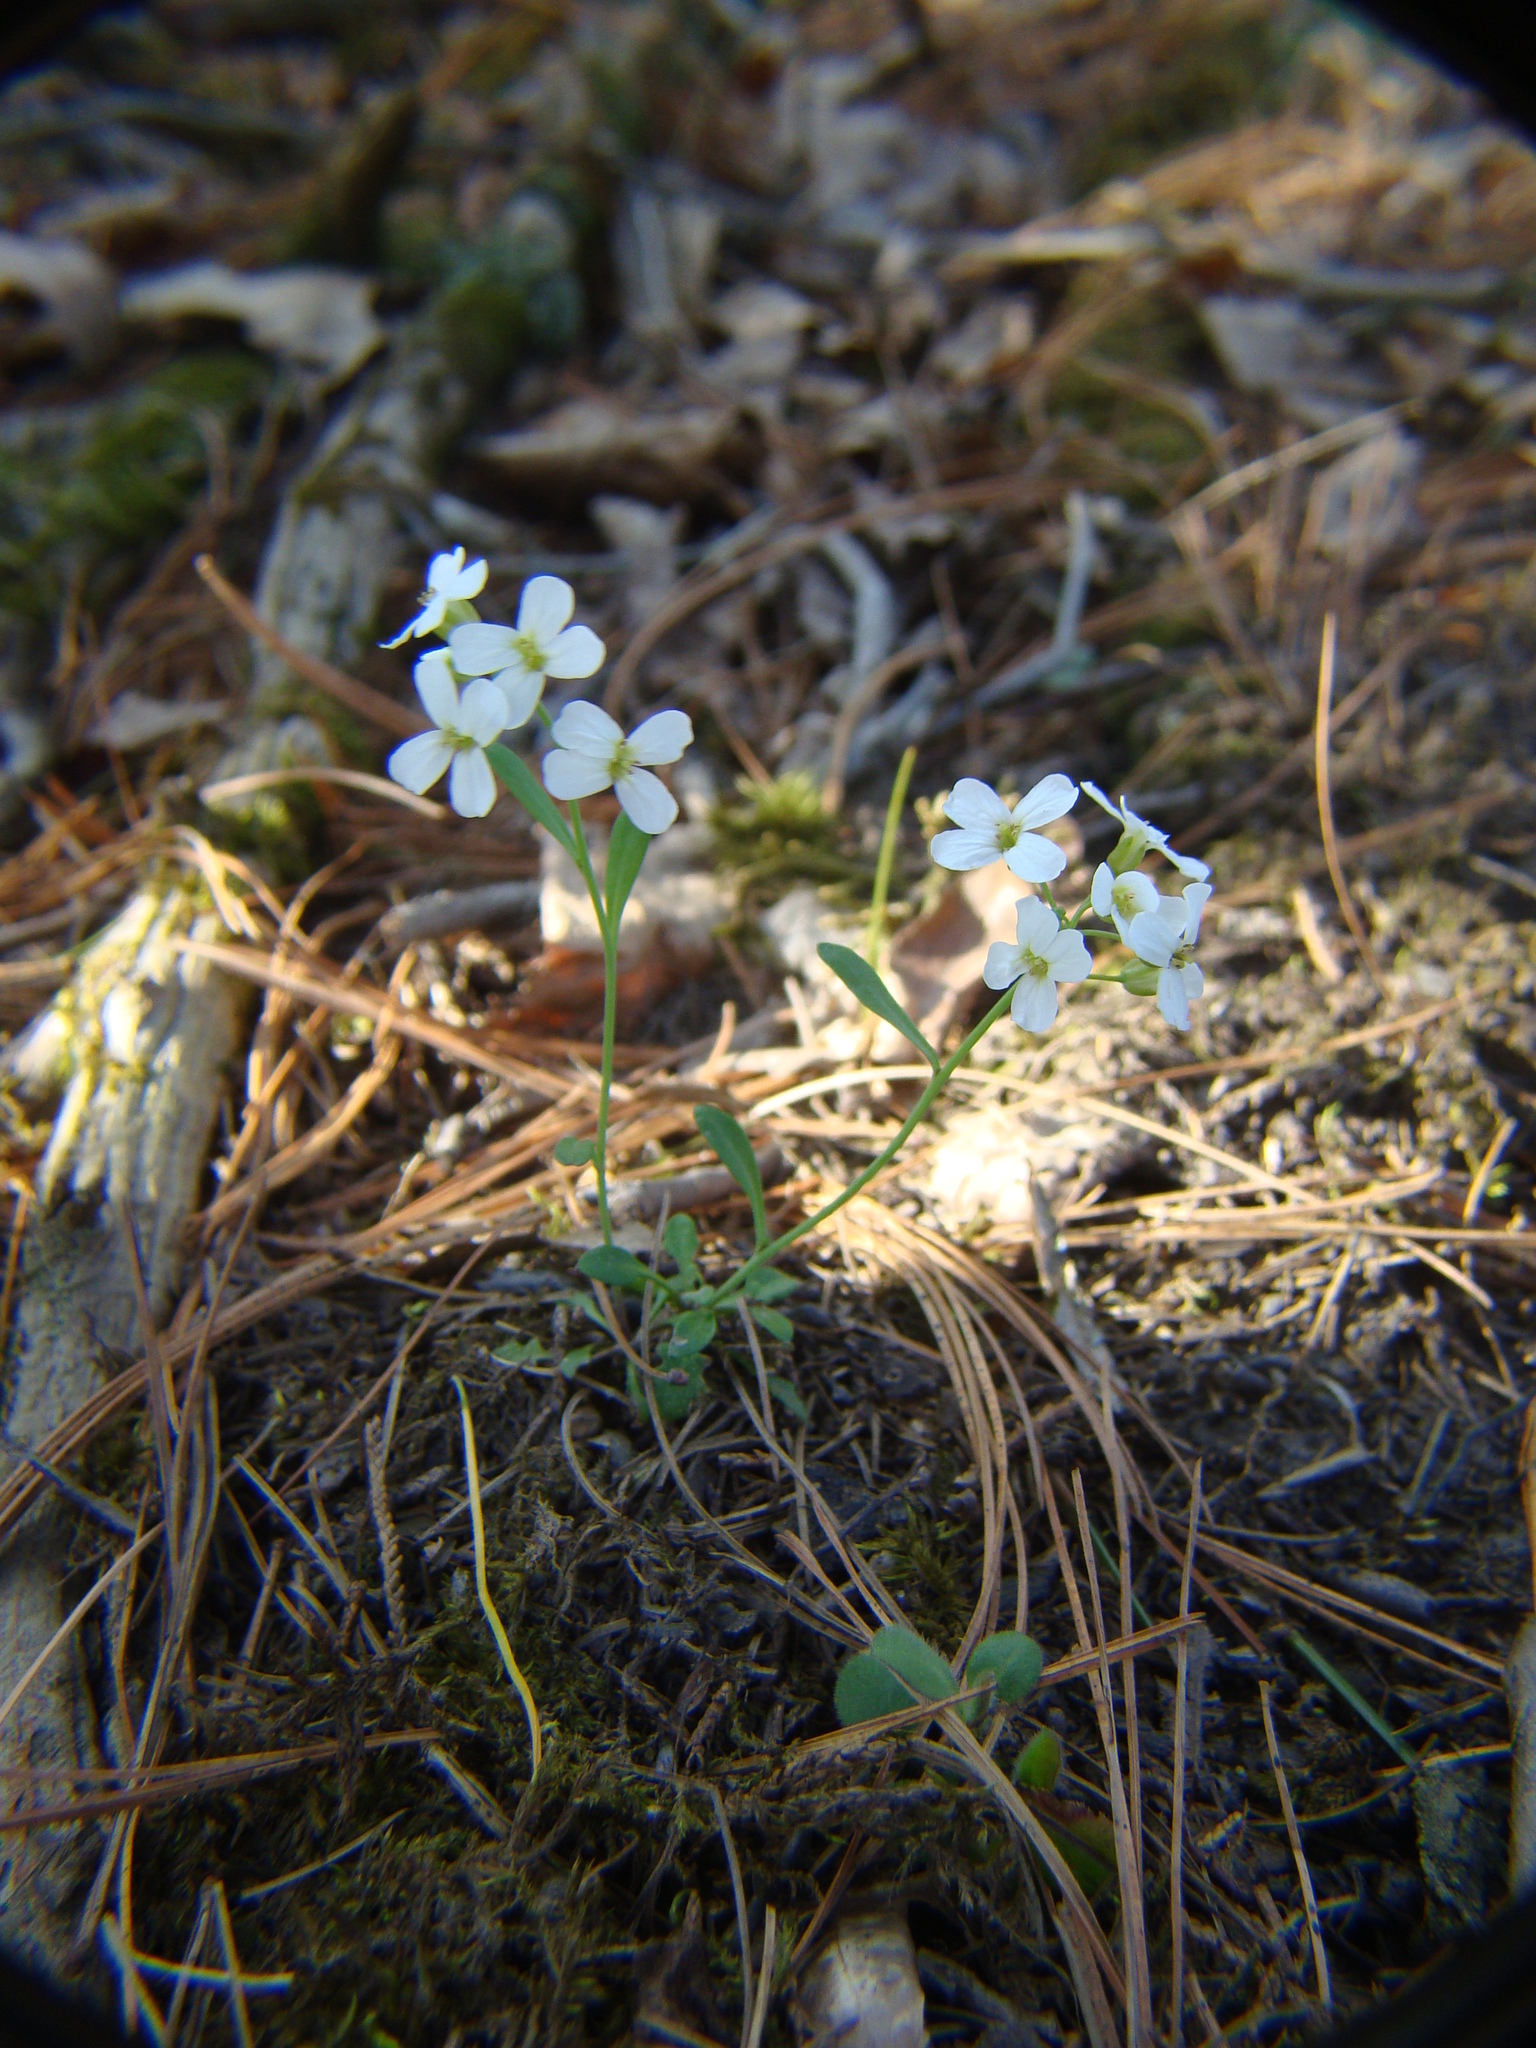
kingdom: Plantae
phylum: Tracheophyta
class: Magnoliopsida
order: Brassicales
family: Brassicaceae
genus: Arabidopsis
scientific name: Arabidopsis lyrata
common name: Lyrate rockcress
